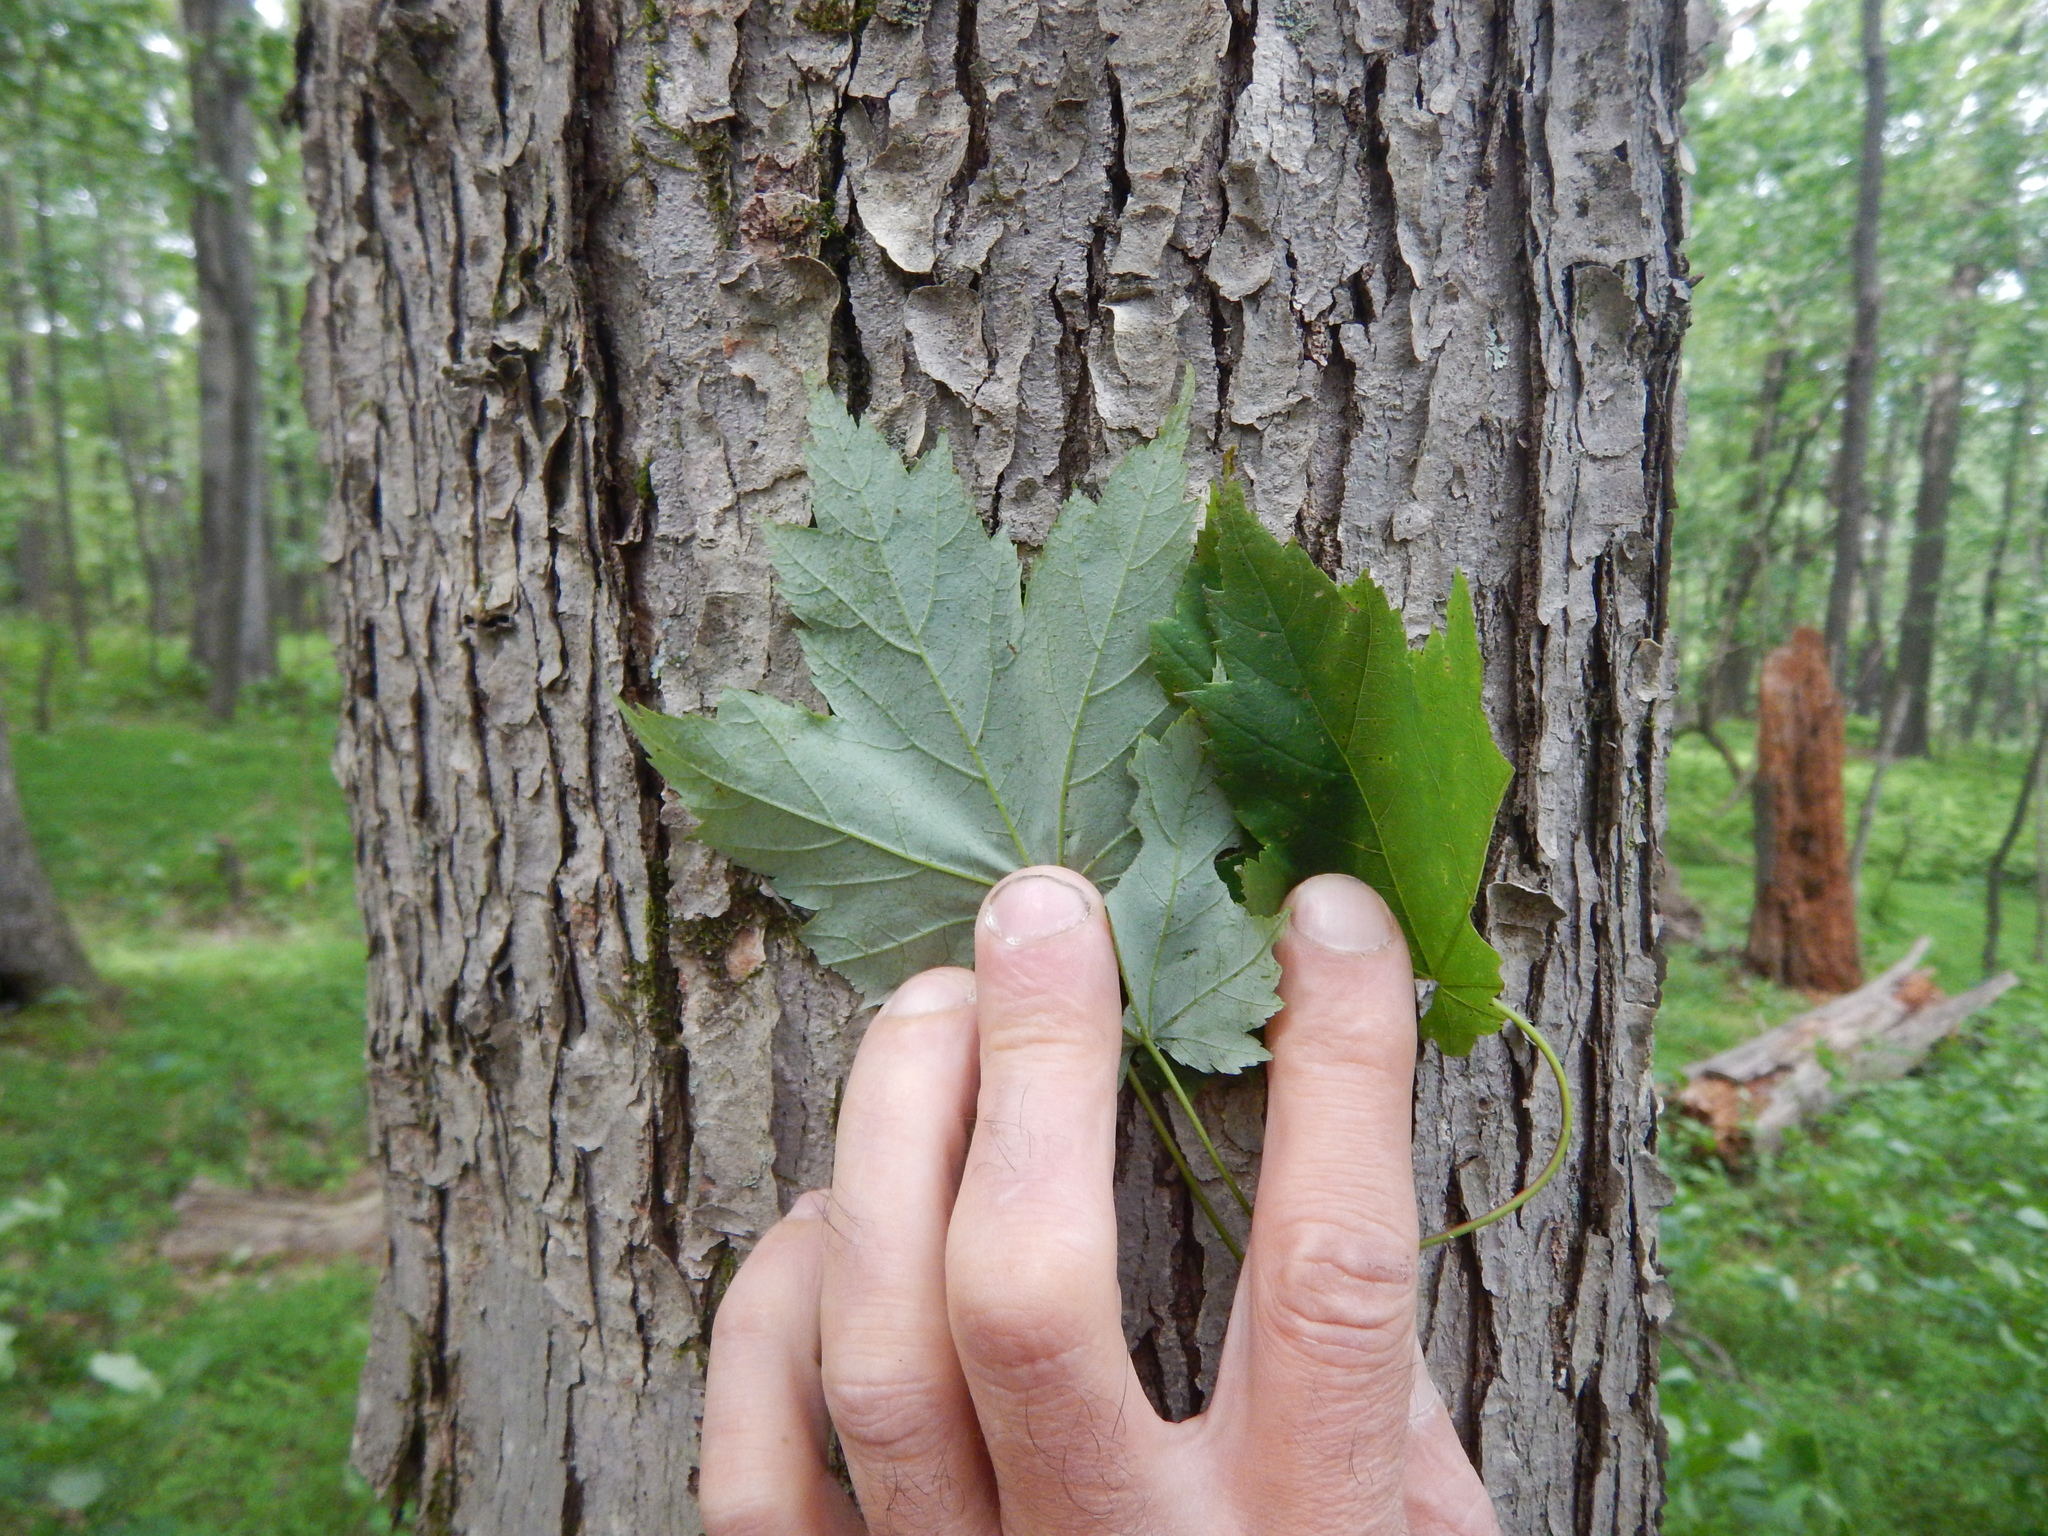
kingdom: Plantae
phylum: Tracheophyta
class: Magnoliopsida
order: Sapindales
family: Sapindaceae
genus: Acer
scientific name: Acer rubrum
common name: Red maple
